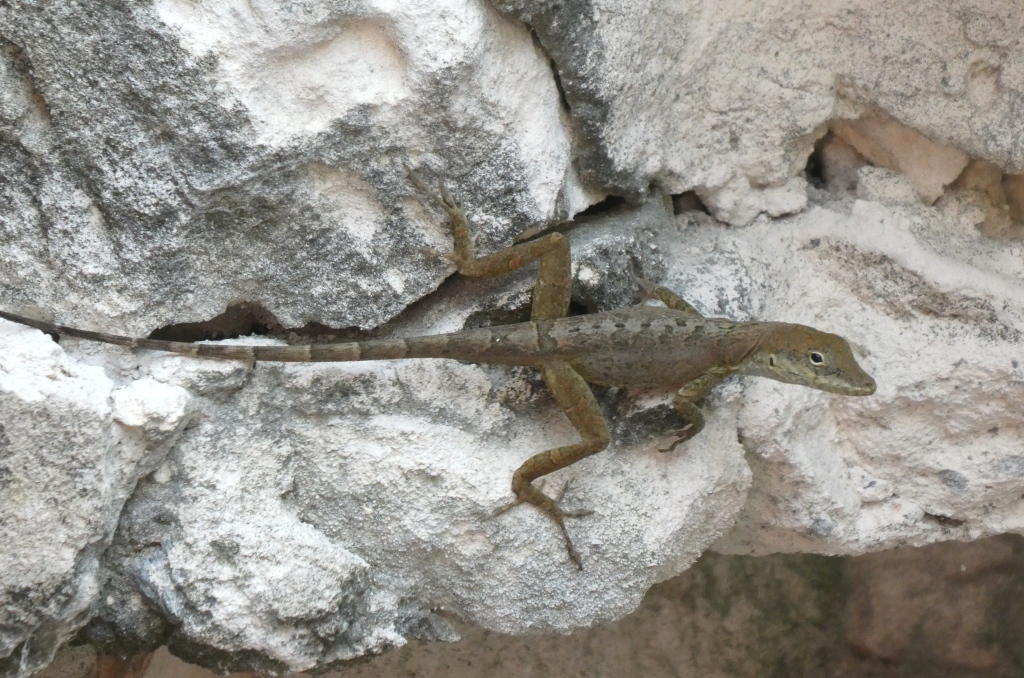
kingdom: Animalia
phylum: Chordata
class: Squamata
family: Dactyloidae
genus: Anolis
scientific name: Anolis scriptus
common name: Silver key anole
